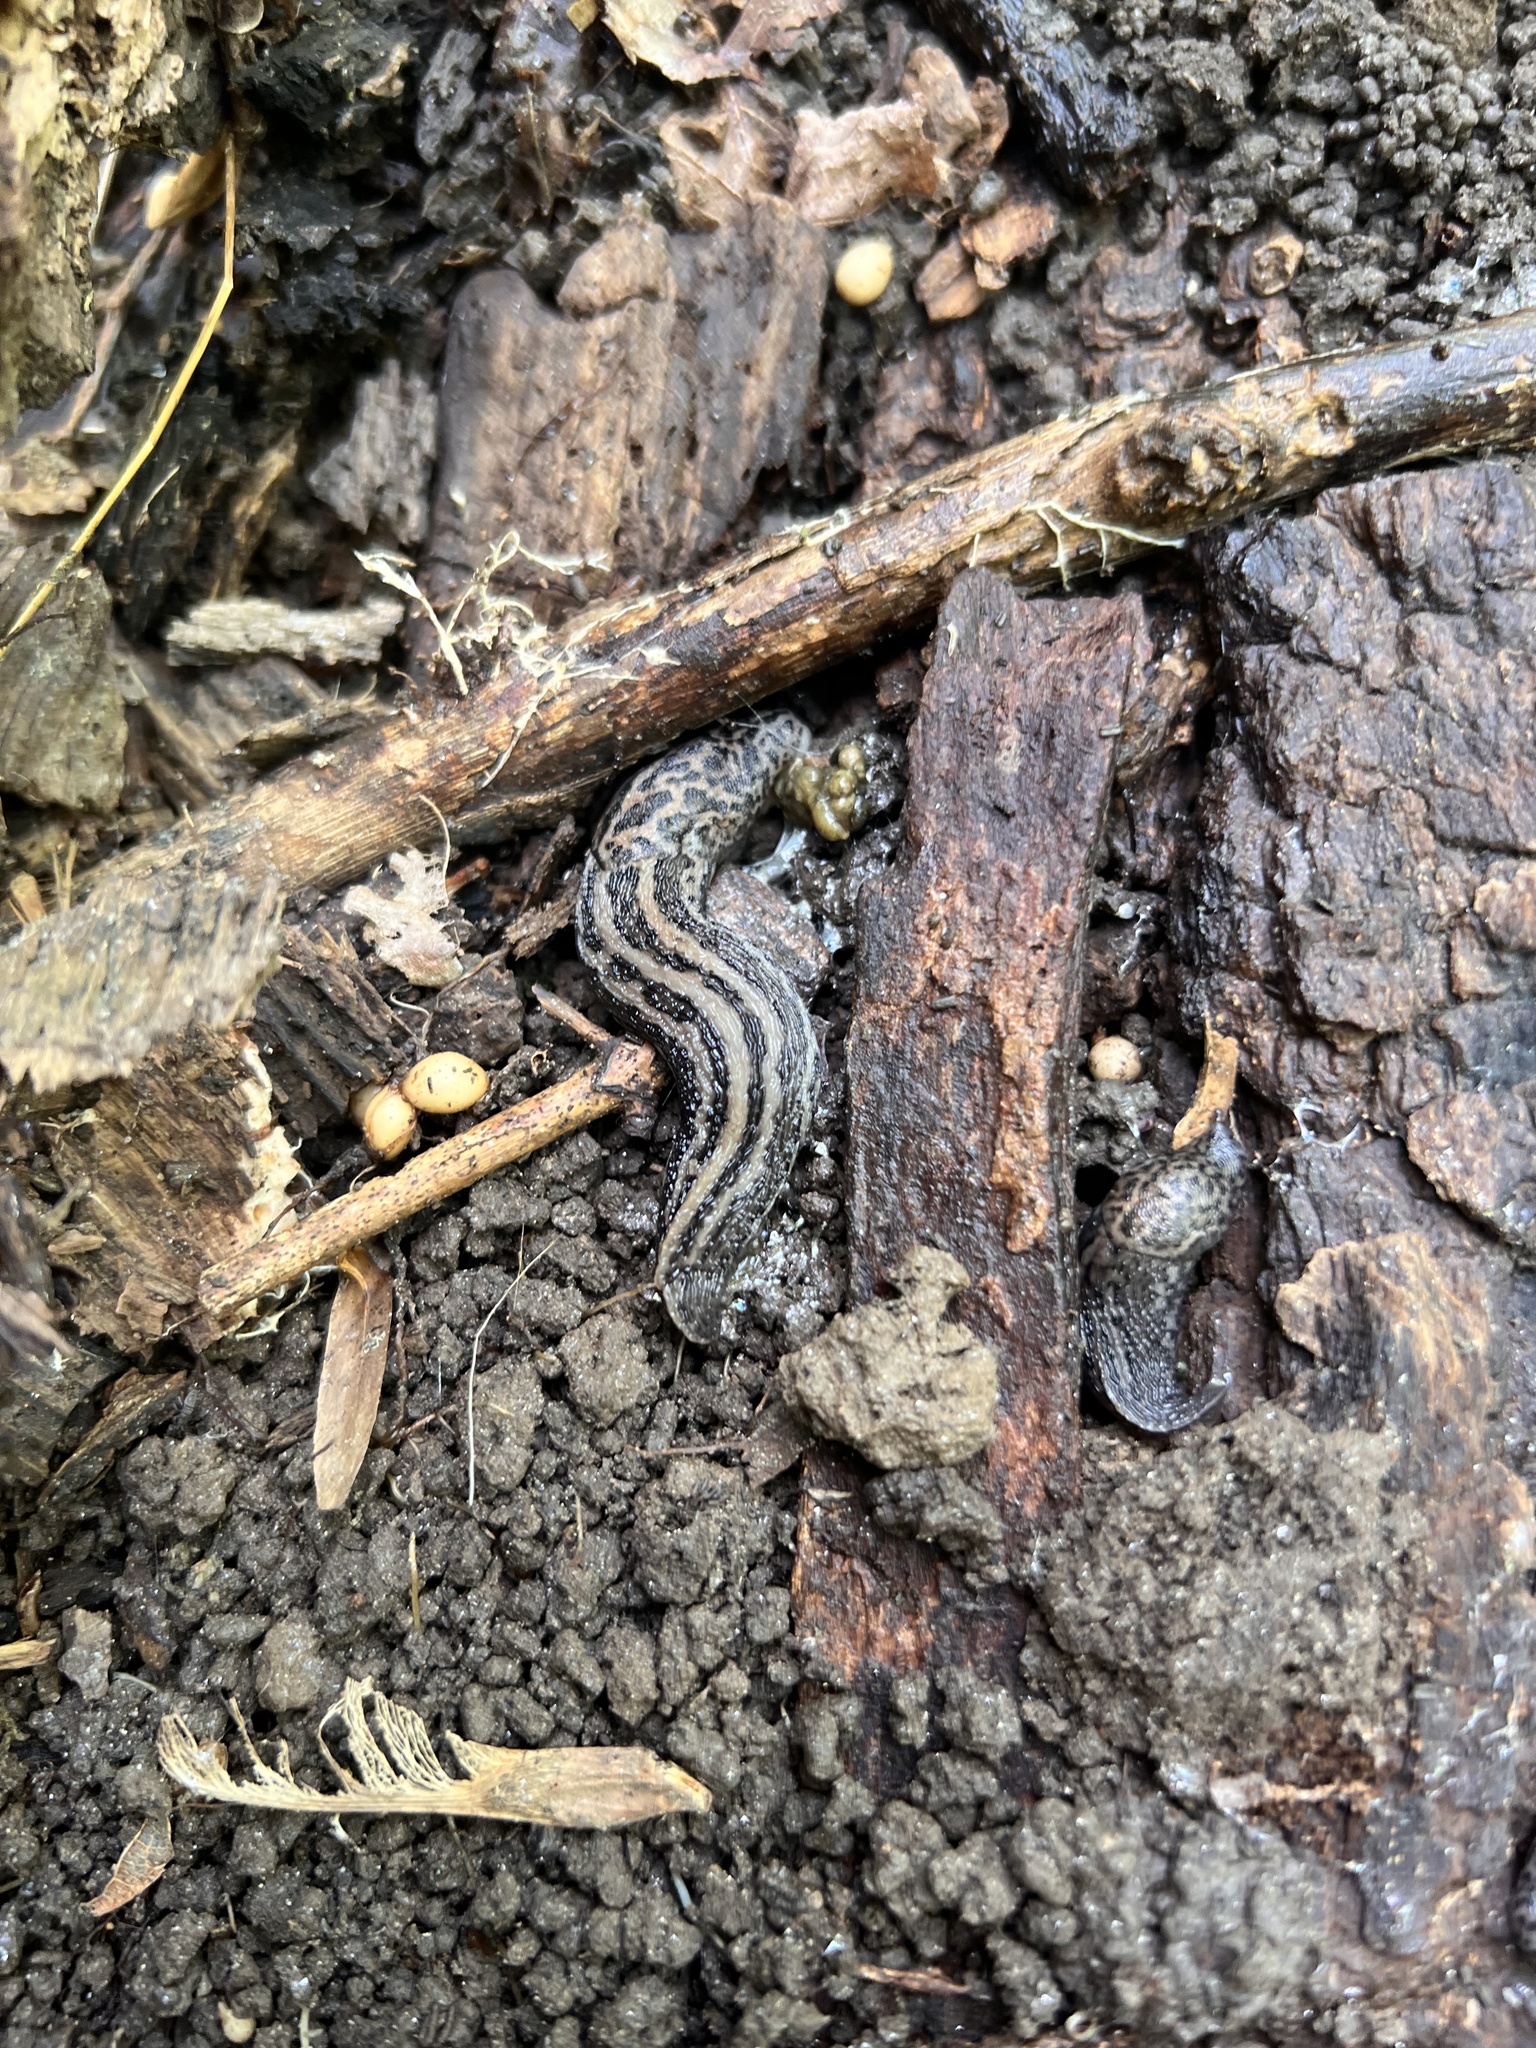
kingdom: Animalia
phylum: Mollusca
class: Gastropoda
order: Stylommatophora
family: Limacidae
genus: Limax
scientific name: Limax maximus
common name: Great grey slug
